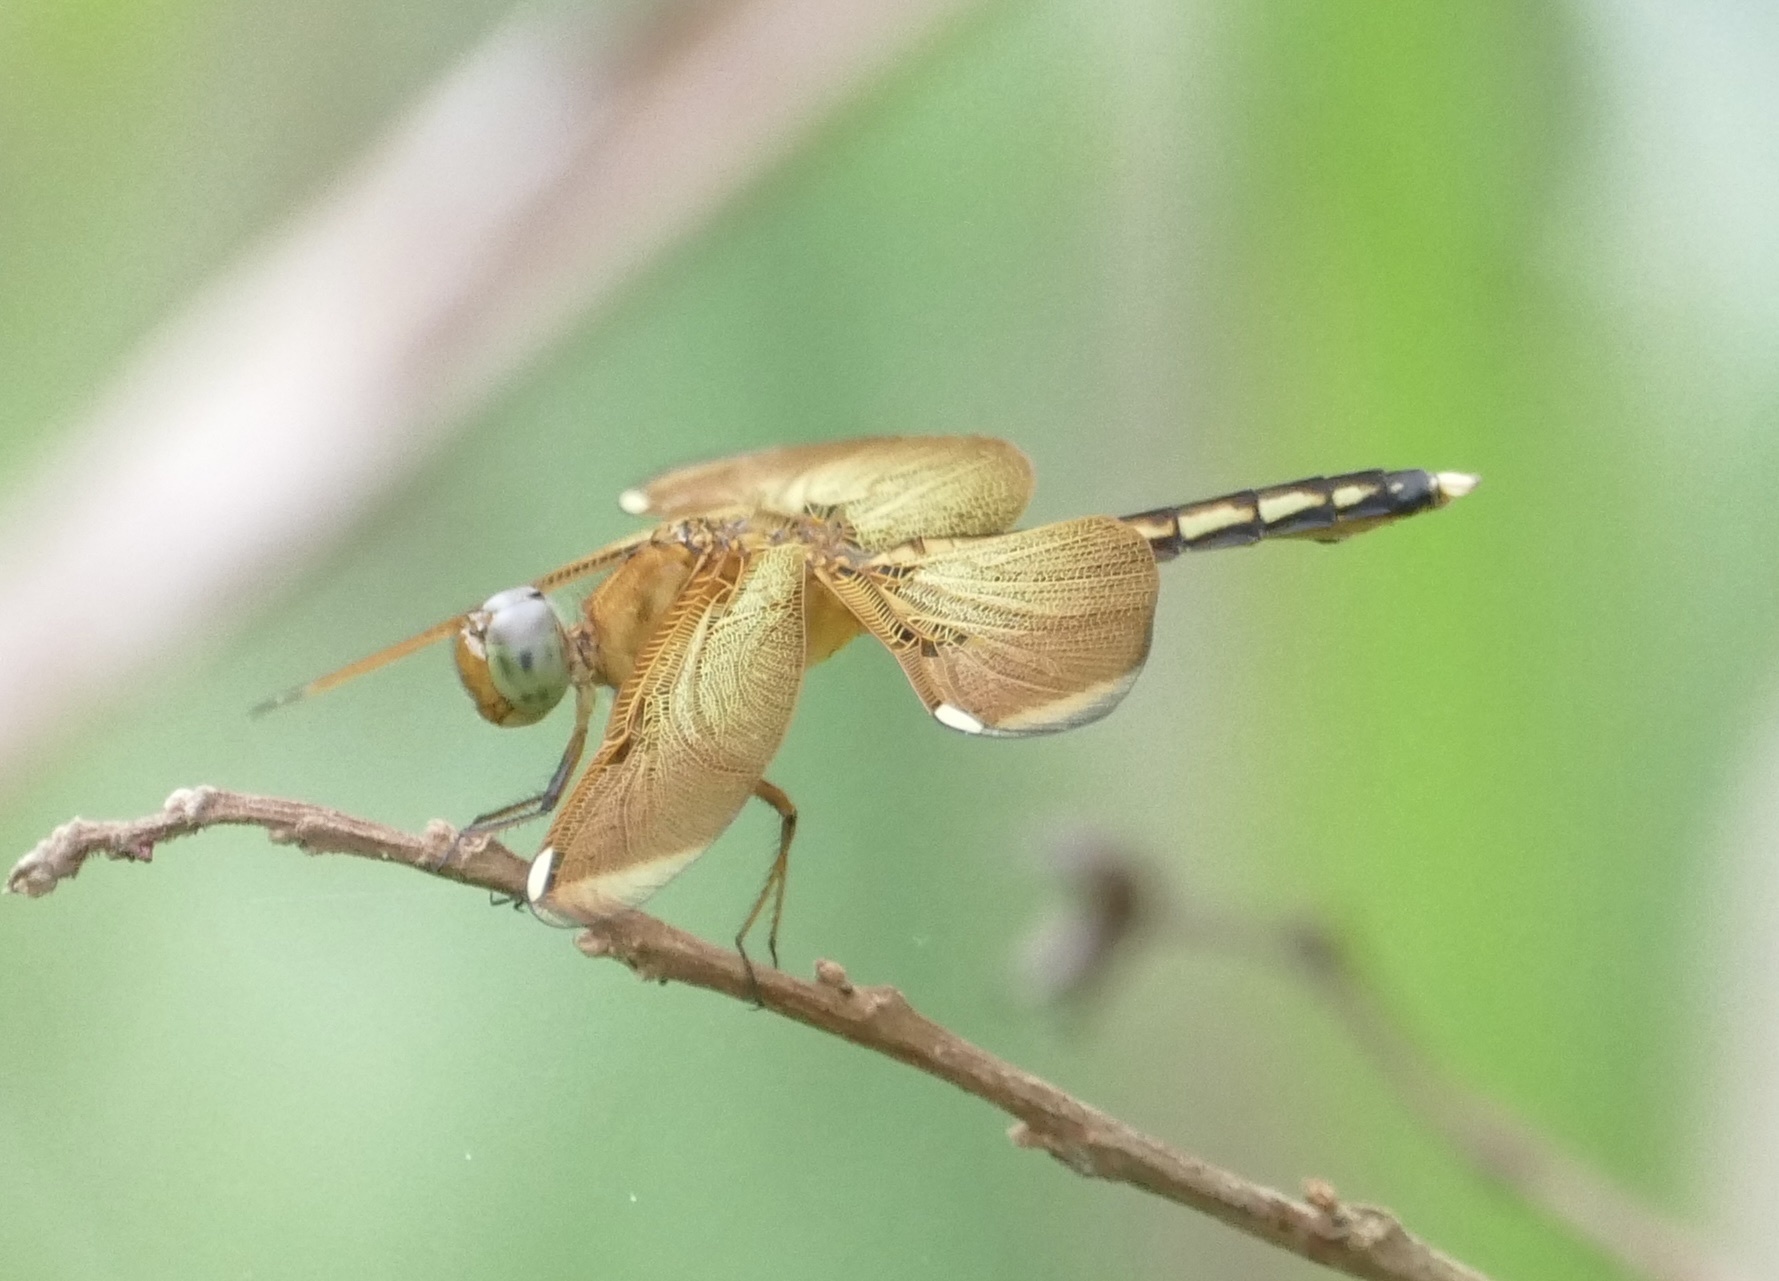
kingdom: Animalia
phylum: Arthropoda
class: Insecta
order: Odonata
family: Libellulidae
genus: Neurothemis
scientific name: Neurothemis manadensis
